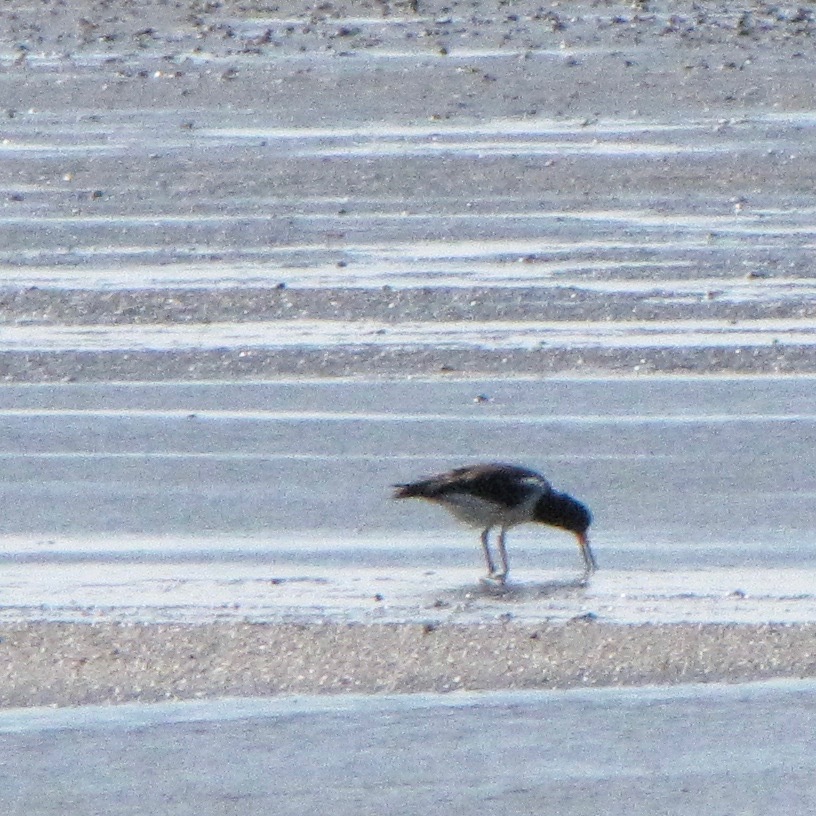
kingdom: Animalia
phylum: Chordata
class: Aves
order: Charadriiformes
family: Haematopodidae
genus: Haematopus
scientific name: Haematopus ostralegus
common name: Eurasian oystercatcher
